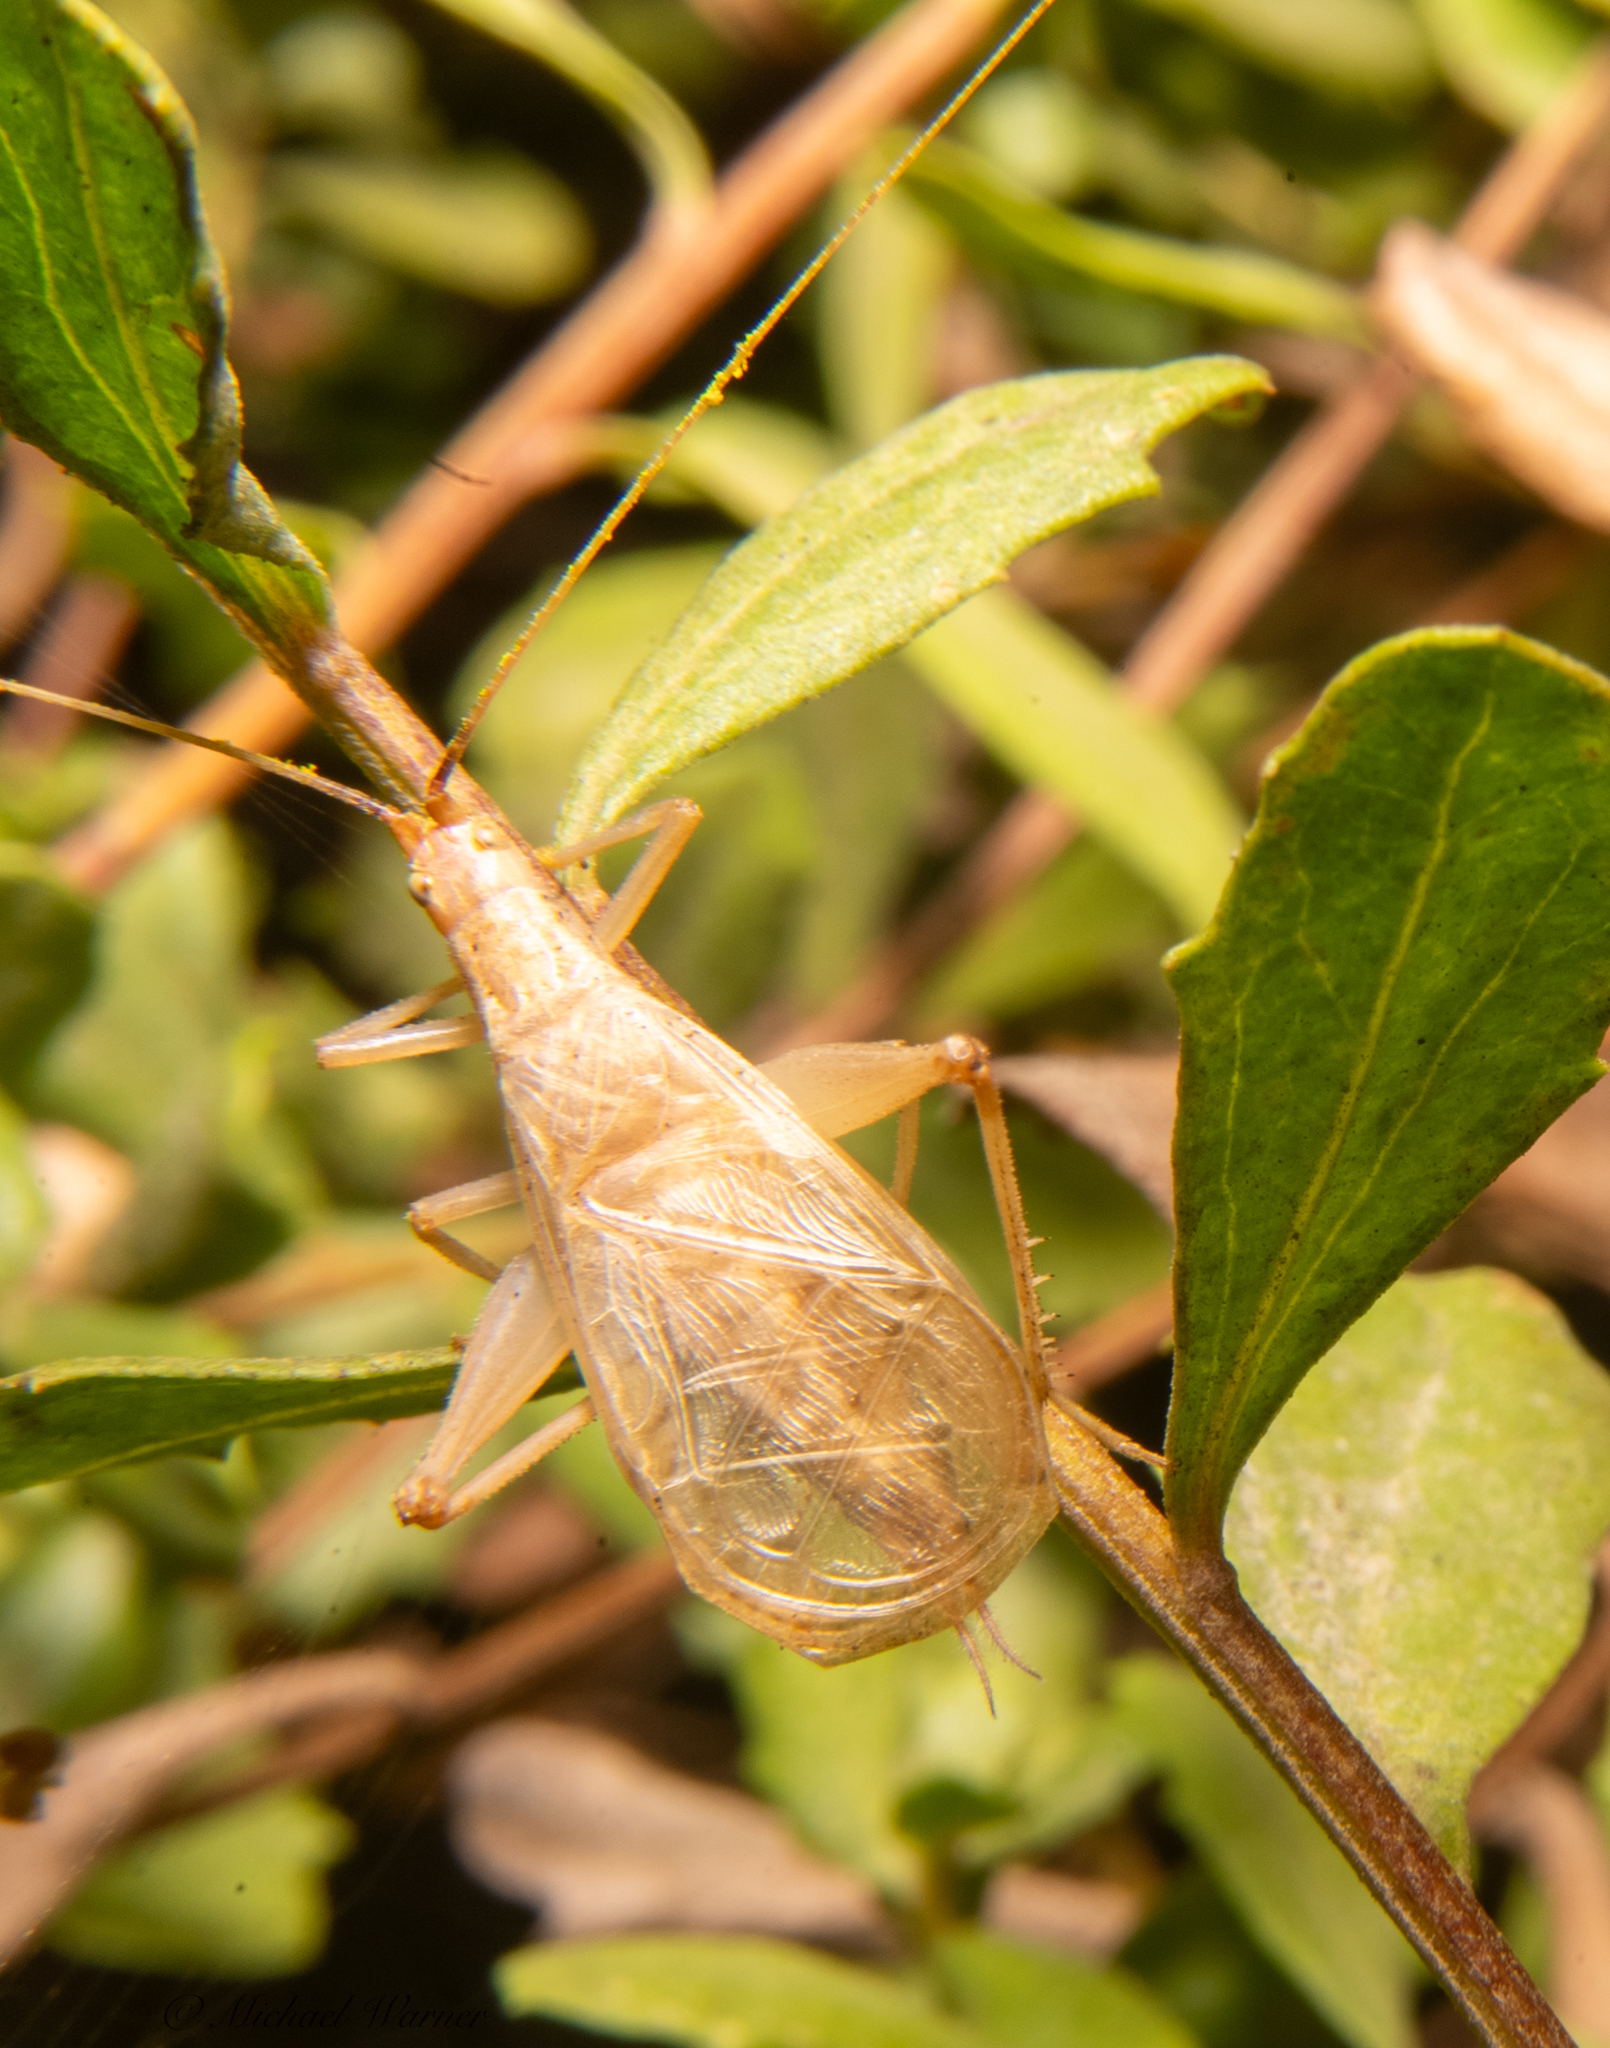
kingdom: Animalia
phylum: Arthropoda
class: Insecta
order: Orthoptera
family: Gryllidae
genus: Oecanthus
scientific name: Oecanthus californicus
